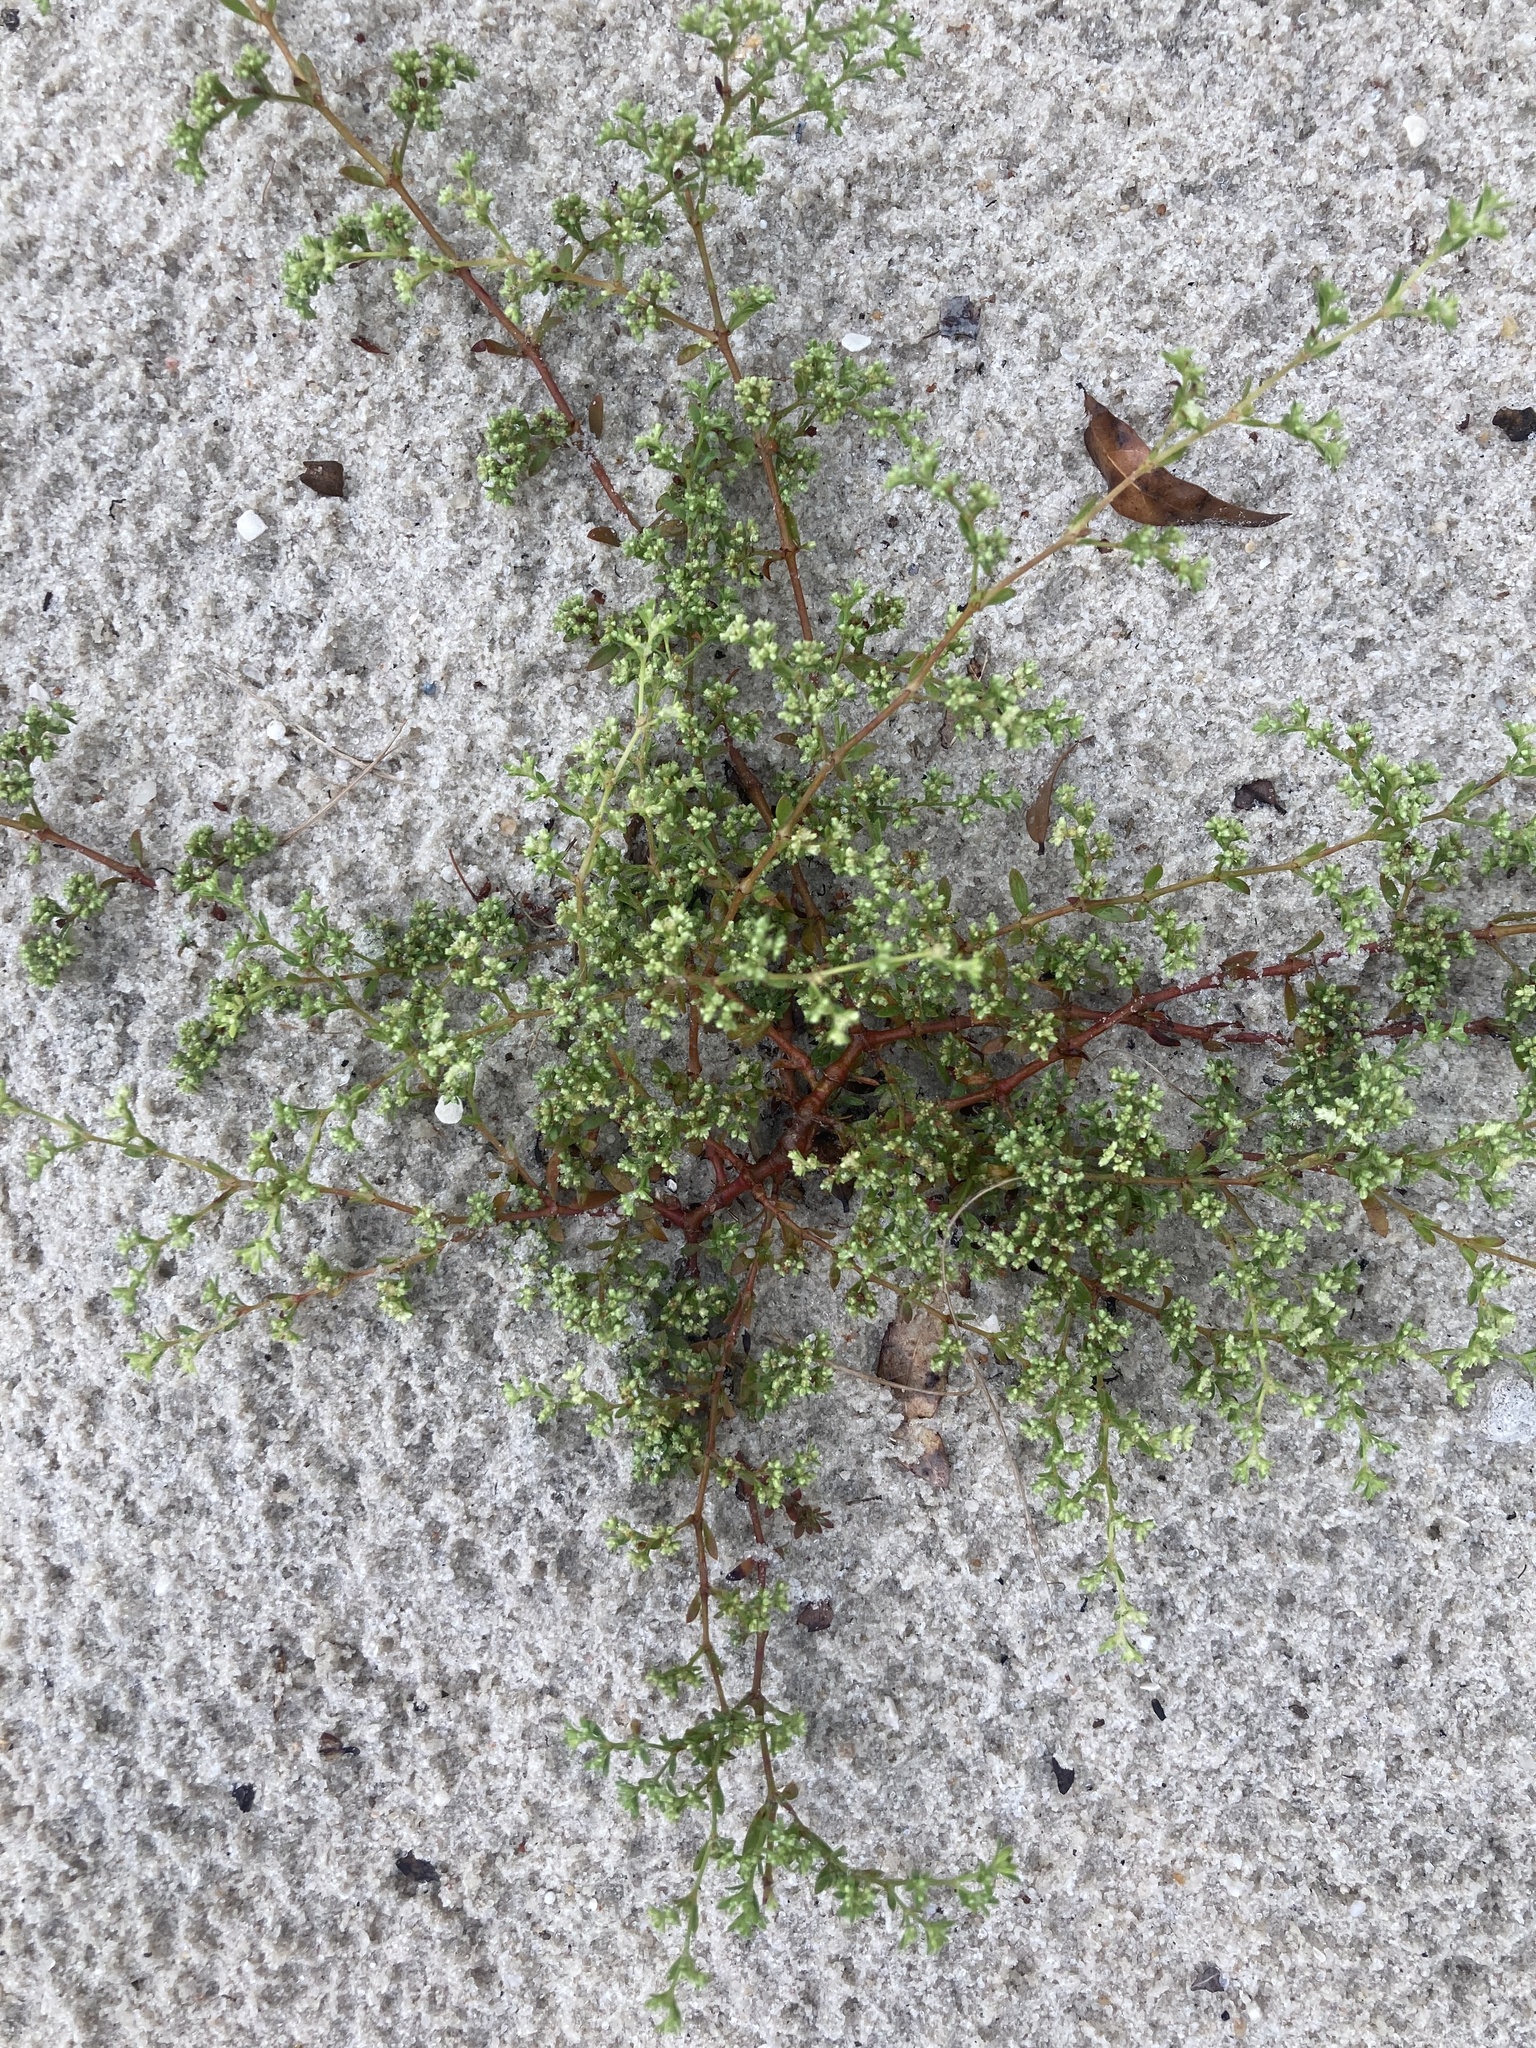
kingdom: Plantae
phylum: Tracheophyta
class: Magnoliopsida
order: Caryophyllales
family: Caryophyllaceae
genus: Paronychia
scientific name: Paronychia americana
